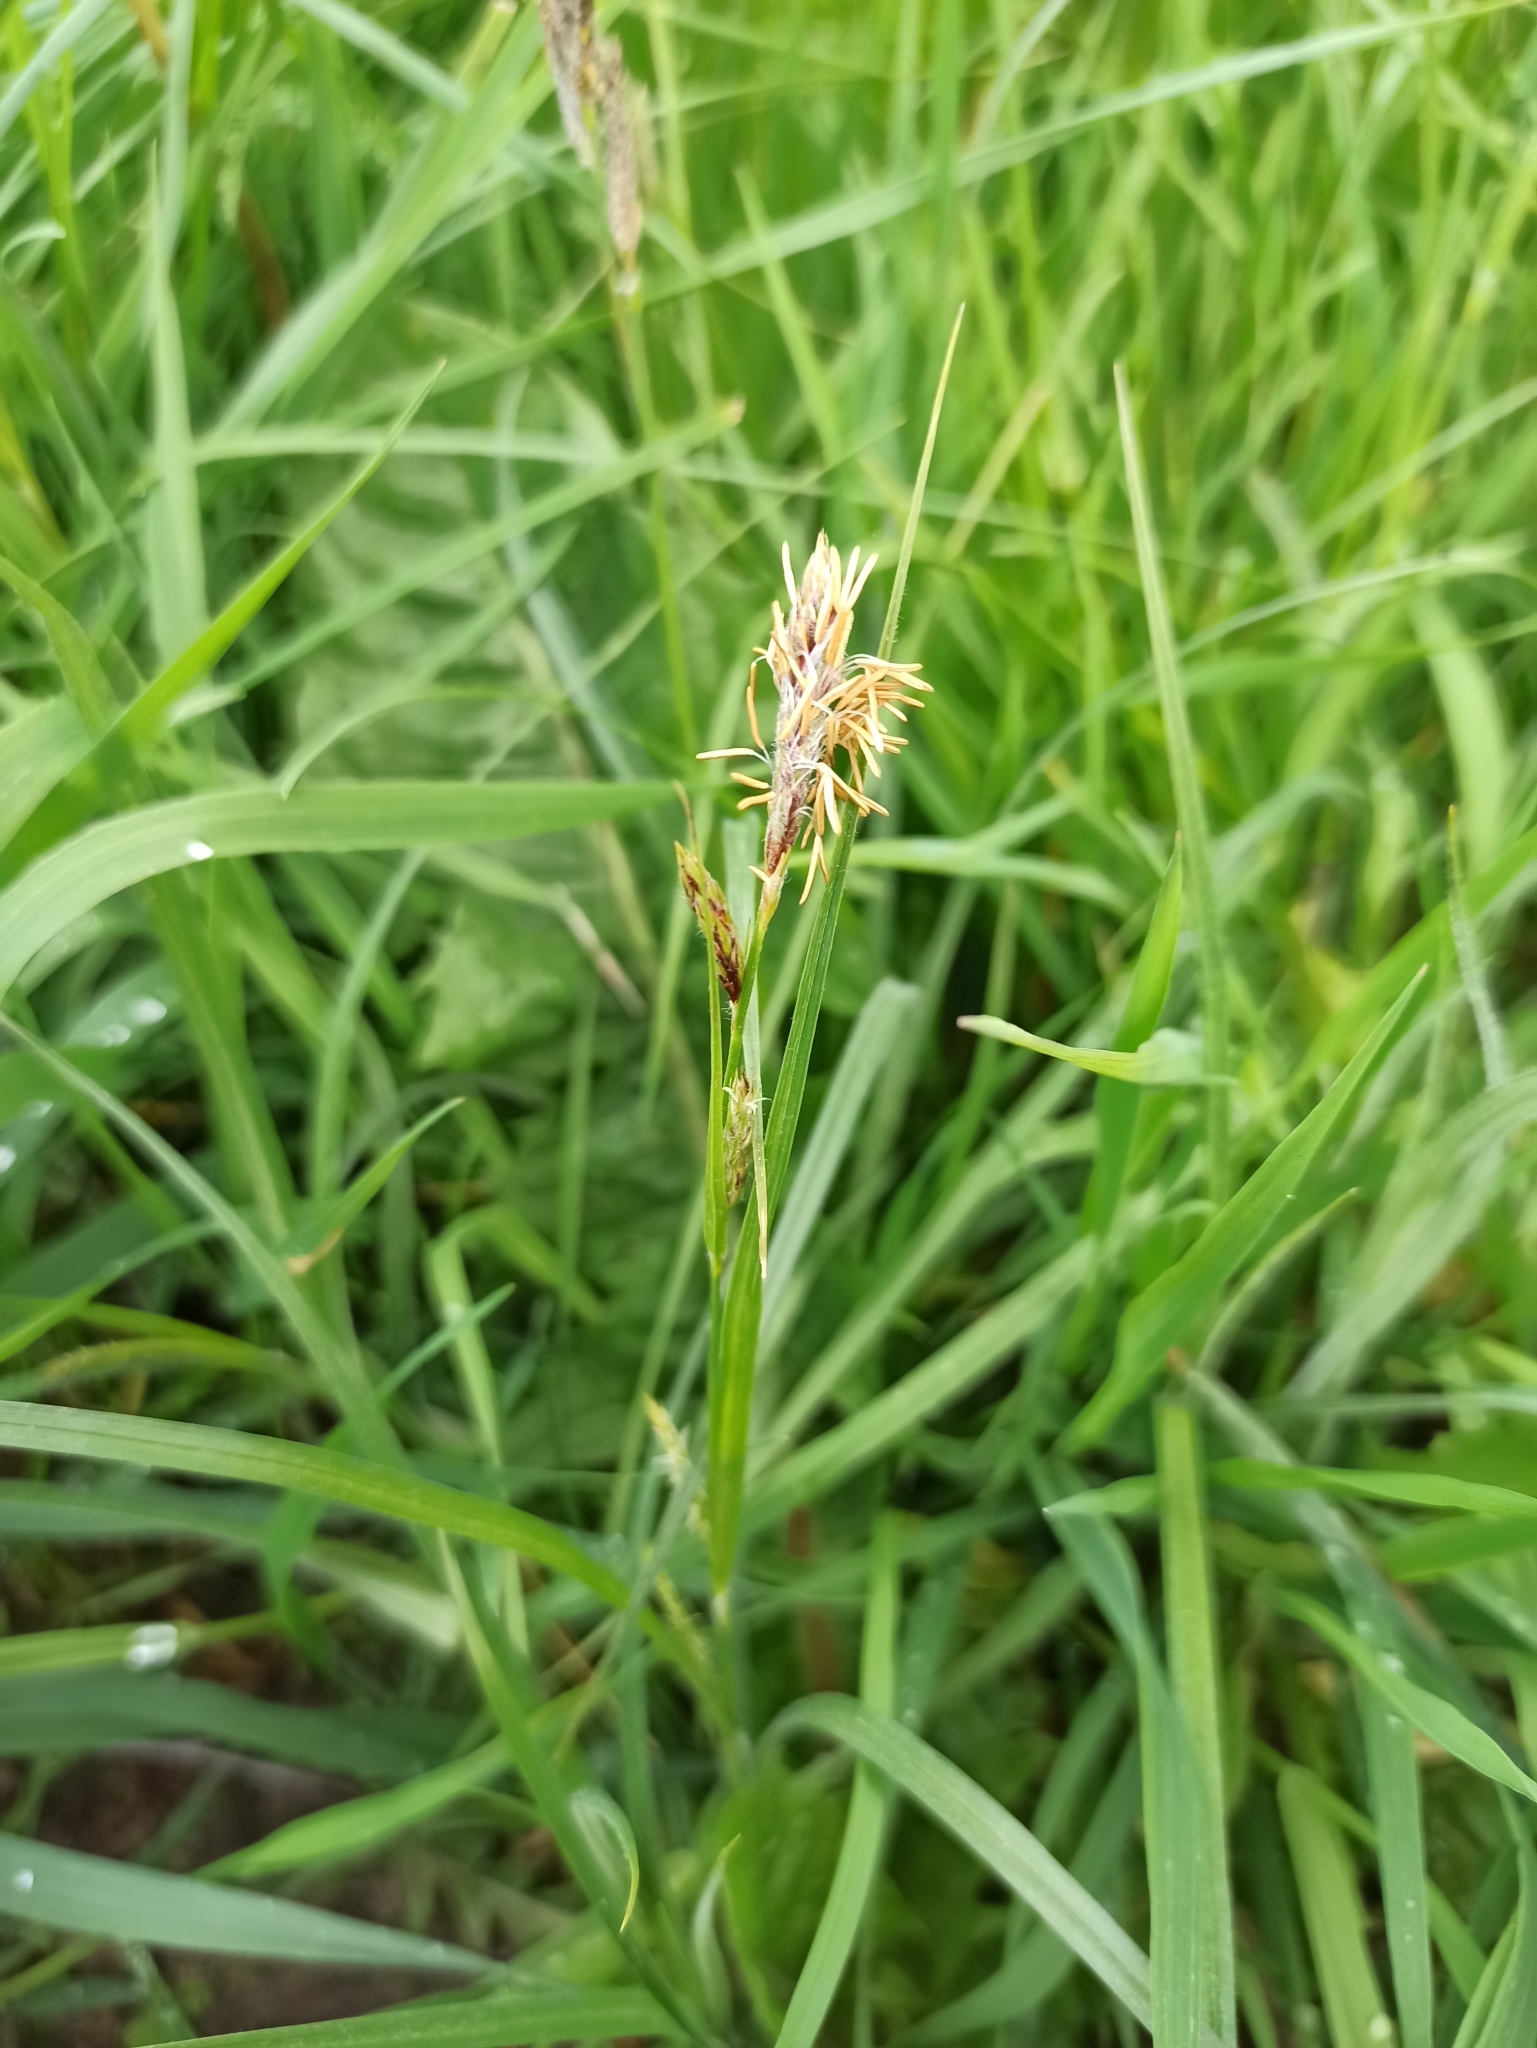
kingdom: Plantae
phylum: Tracheophyta
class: Liliopsida
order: Poales
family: Cyperaceae
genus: Carex
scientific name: Carex hirta
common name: Hairy sedge
